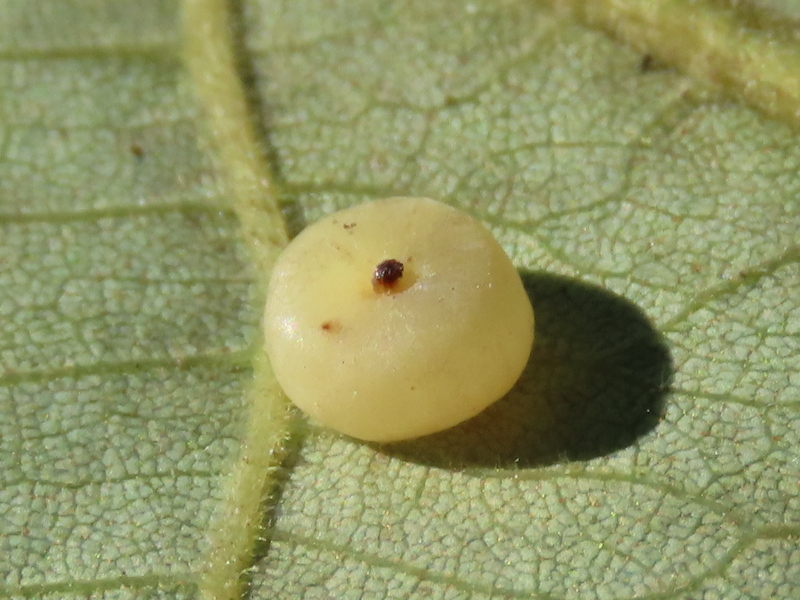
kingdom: Animalia
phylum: Arthropoda
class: Insecta
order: Diptera
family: Cecidomyiidae
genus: Caryomyia
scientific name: Caryomyia biretta
